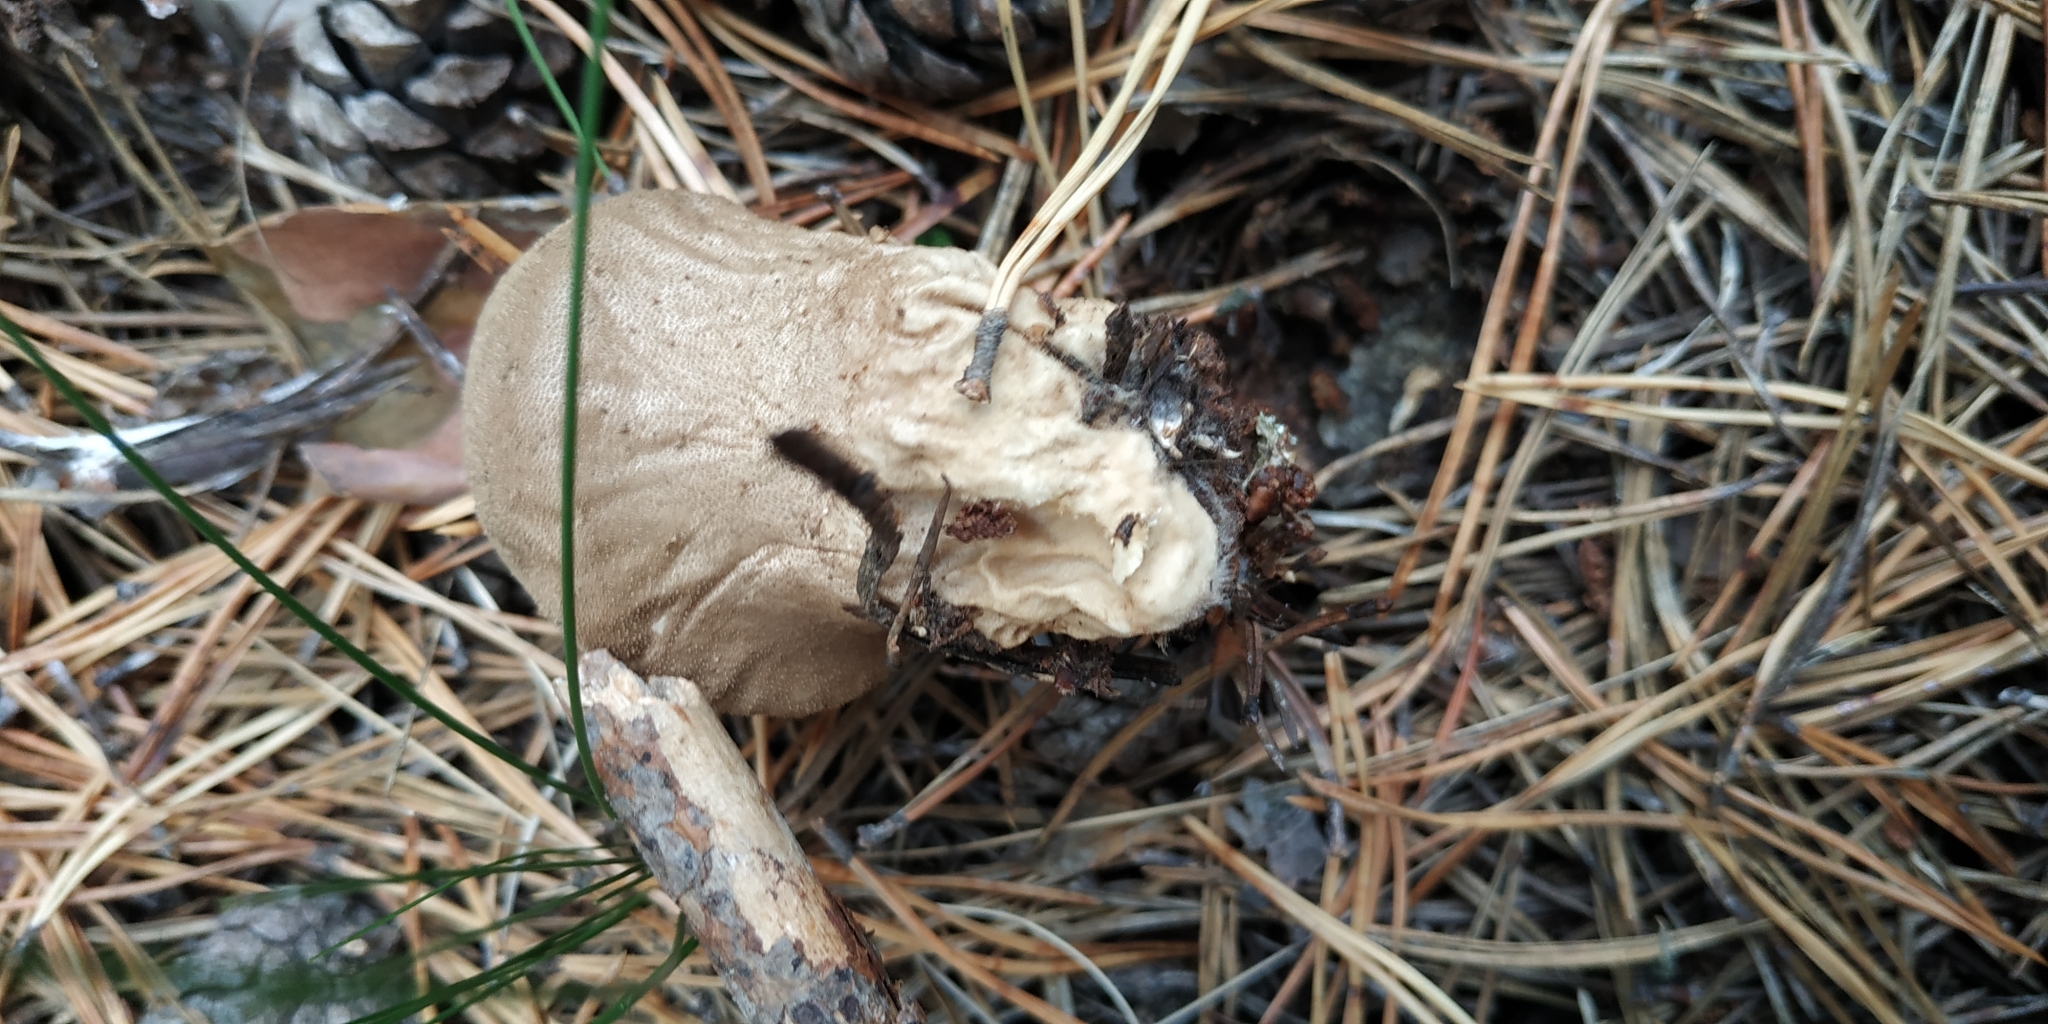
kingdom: Fungi
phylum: Basidiomycota
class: Agaricomycetes
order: Agaricales
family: Lycoperdaceae
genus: Lycoperdon
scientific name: Lycoperdon perlatum
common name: Common puffball
